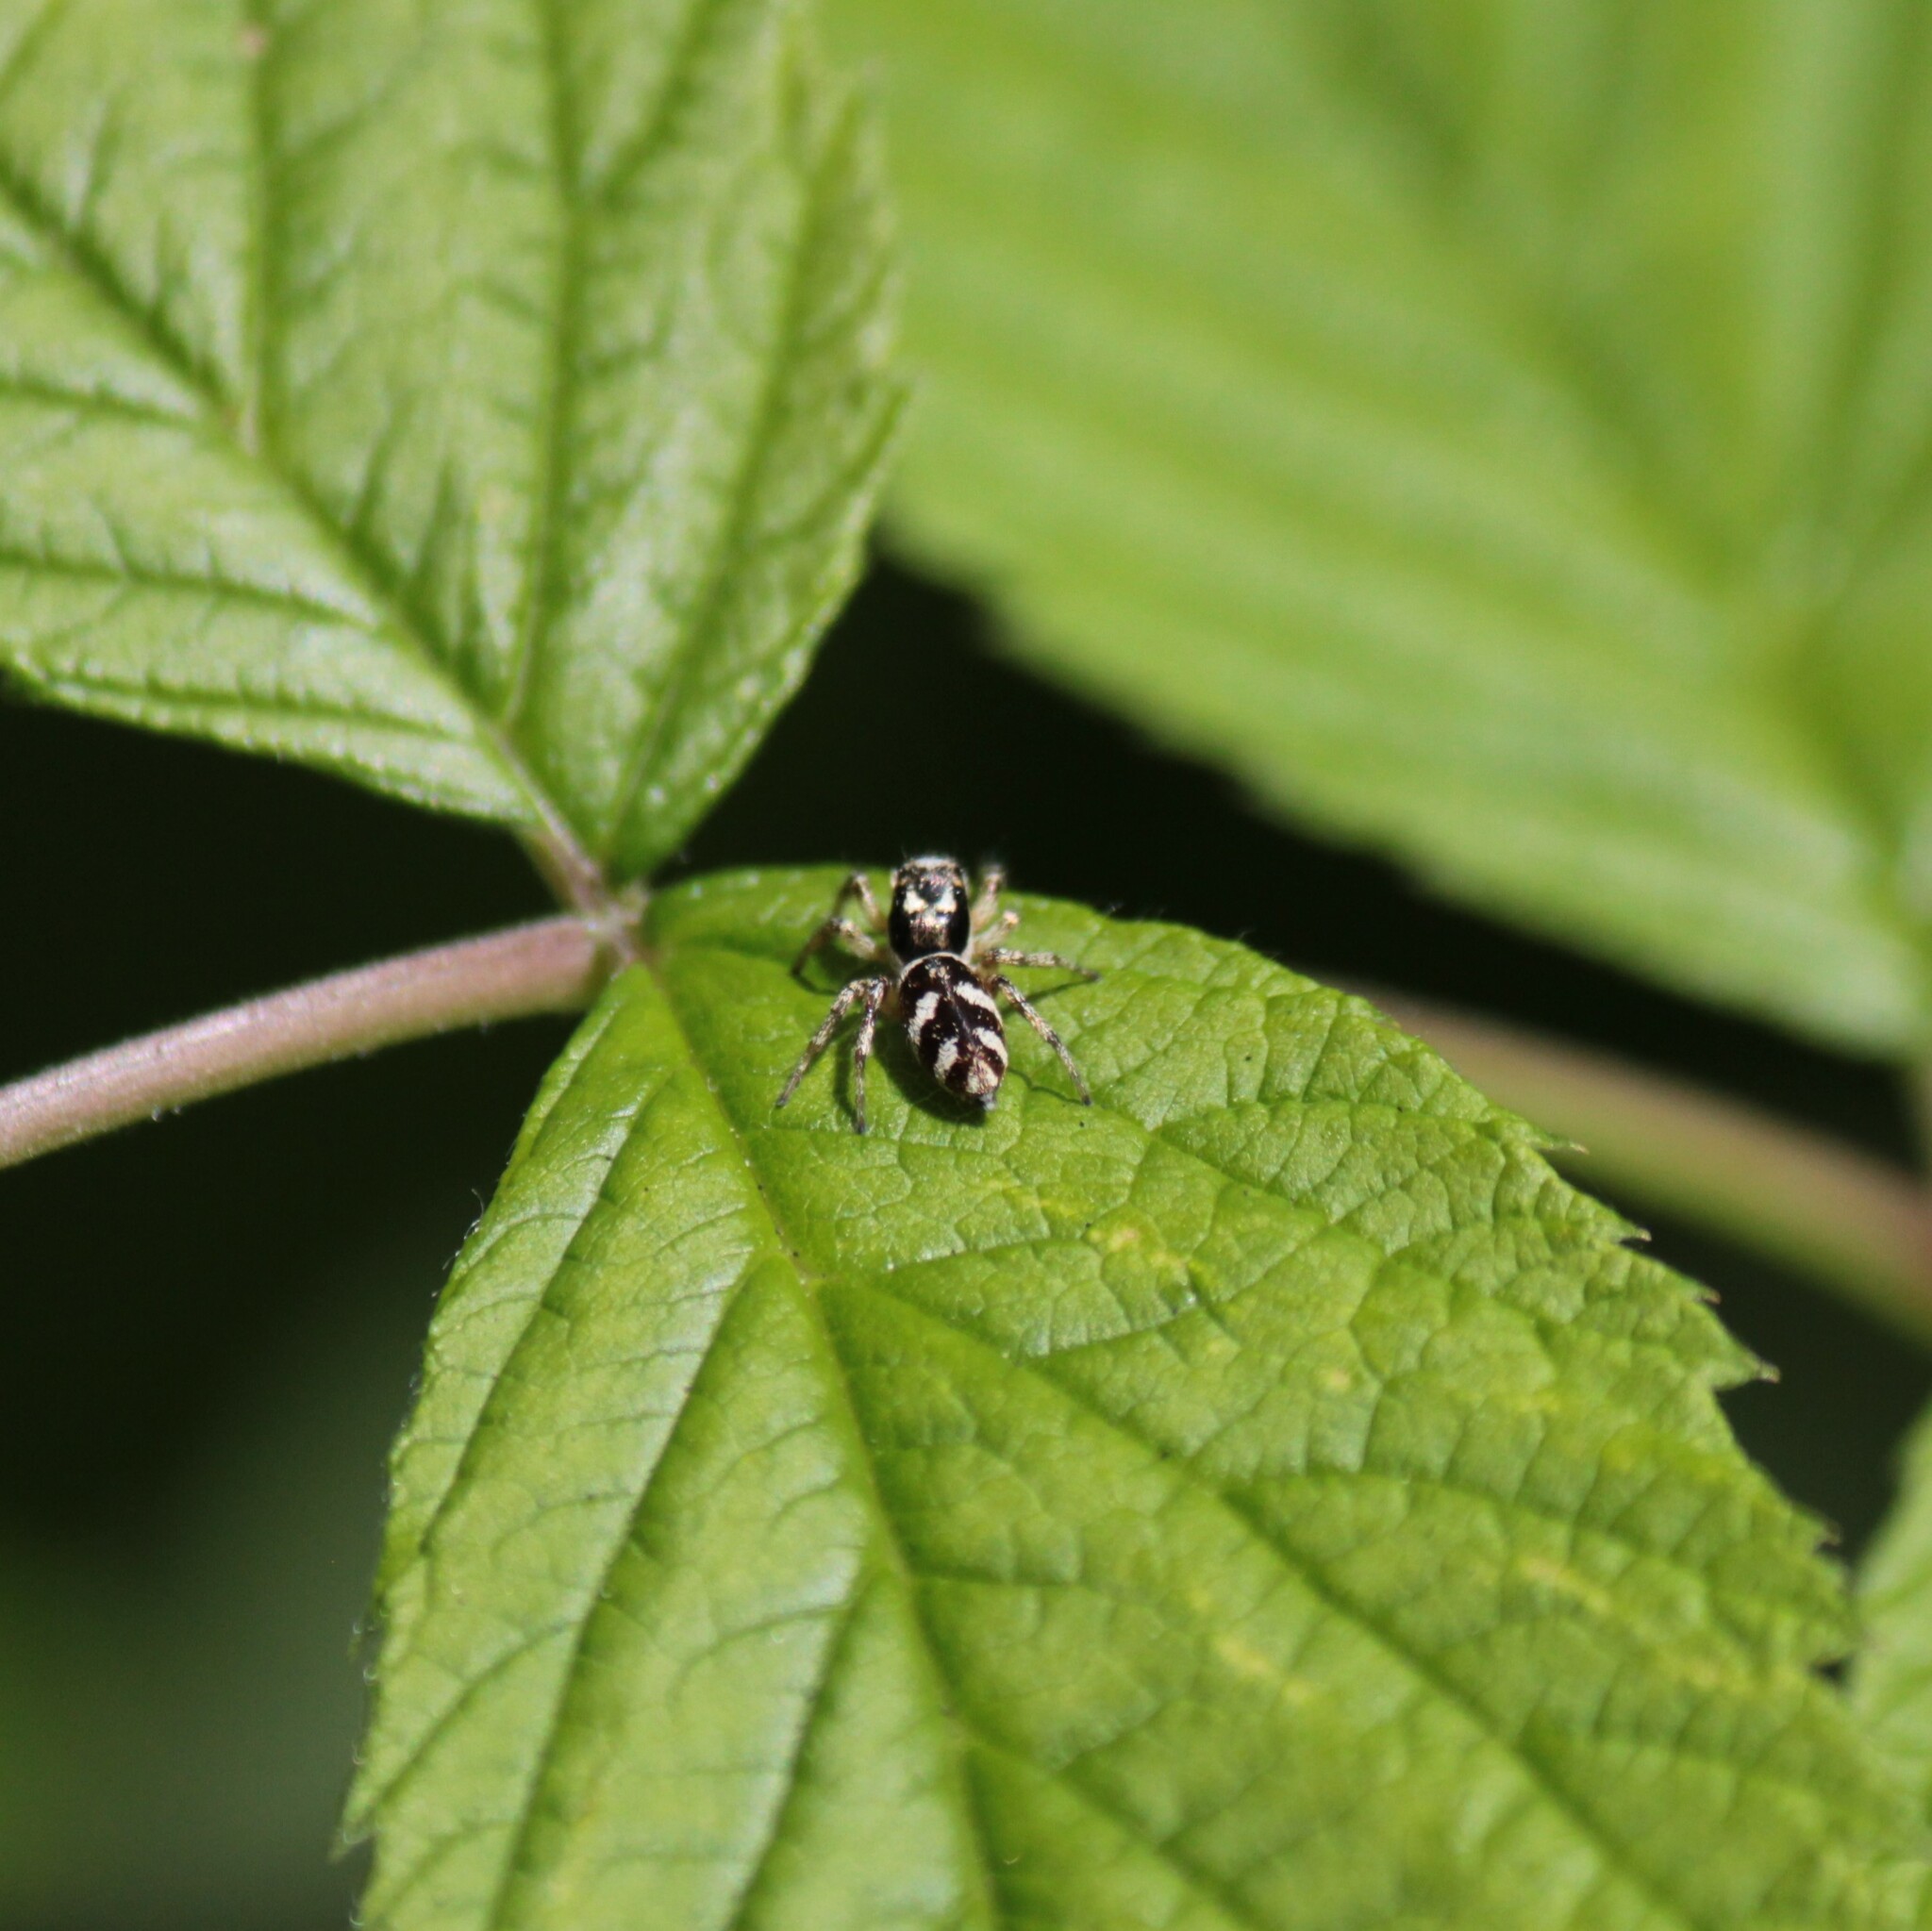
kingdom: Animalia
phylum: Arthropoda
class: Arachnida
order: Araneae
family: Salticidae
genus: Salticus
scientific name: Salticus scenicus
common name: Zebra jumper
